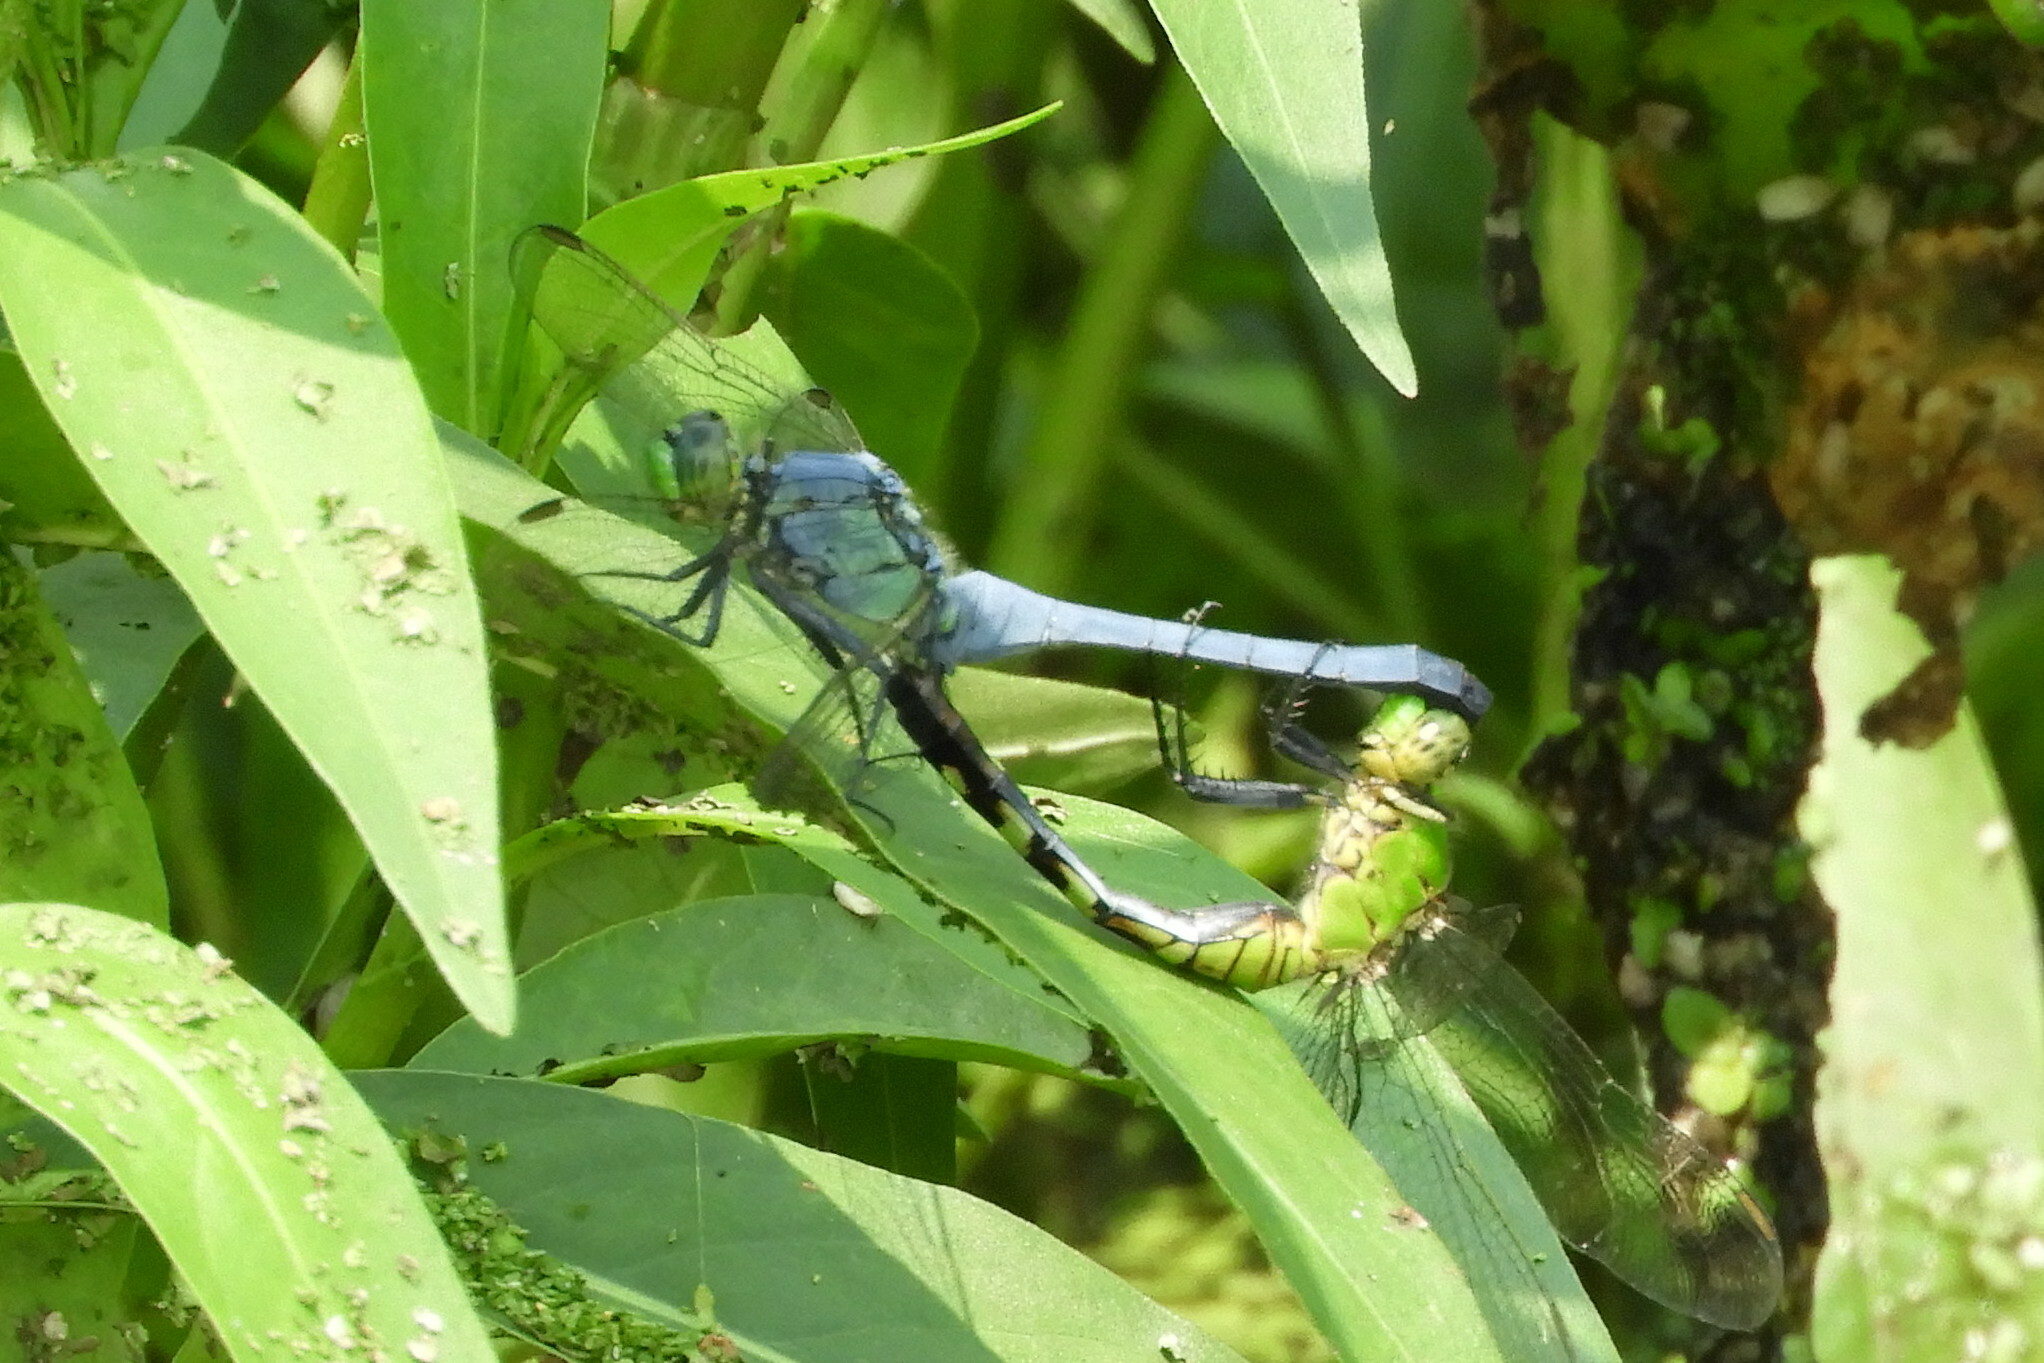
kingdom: Animalia
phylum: Arthropoda
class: Insecta
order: Odonata
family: Libellulidae
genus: Erythemis
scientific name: Erythemis simplicicollis
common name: Eastern pondhawk
